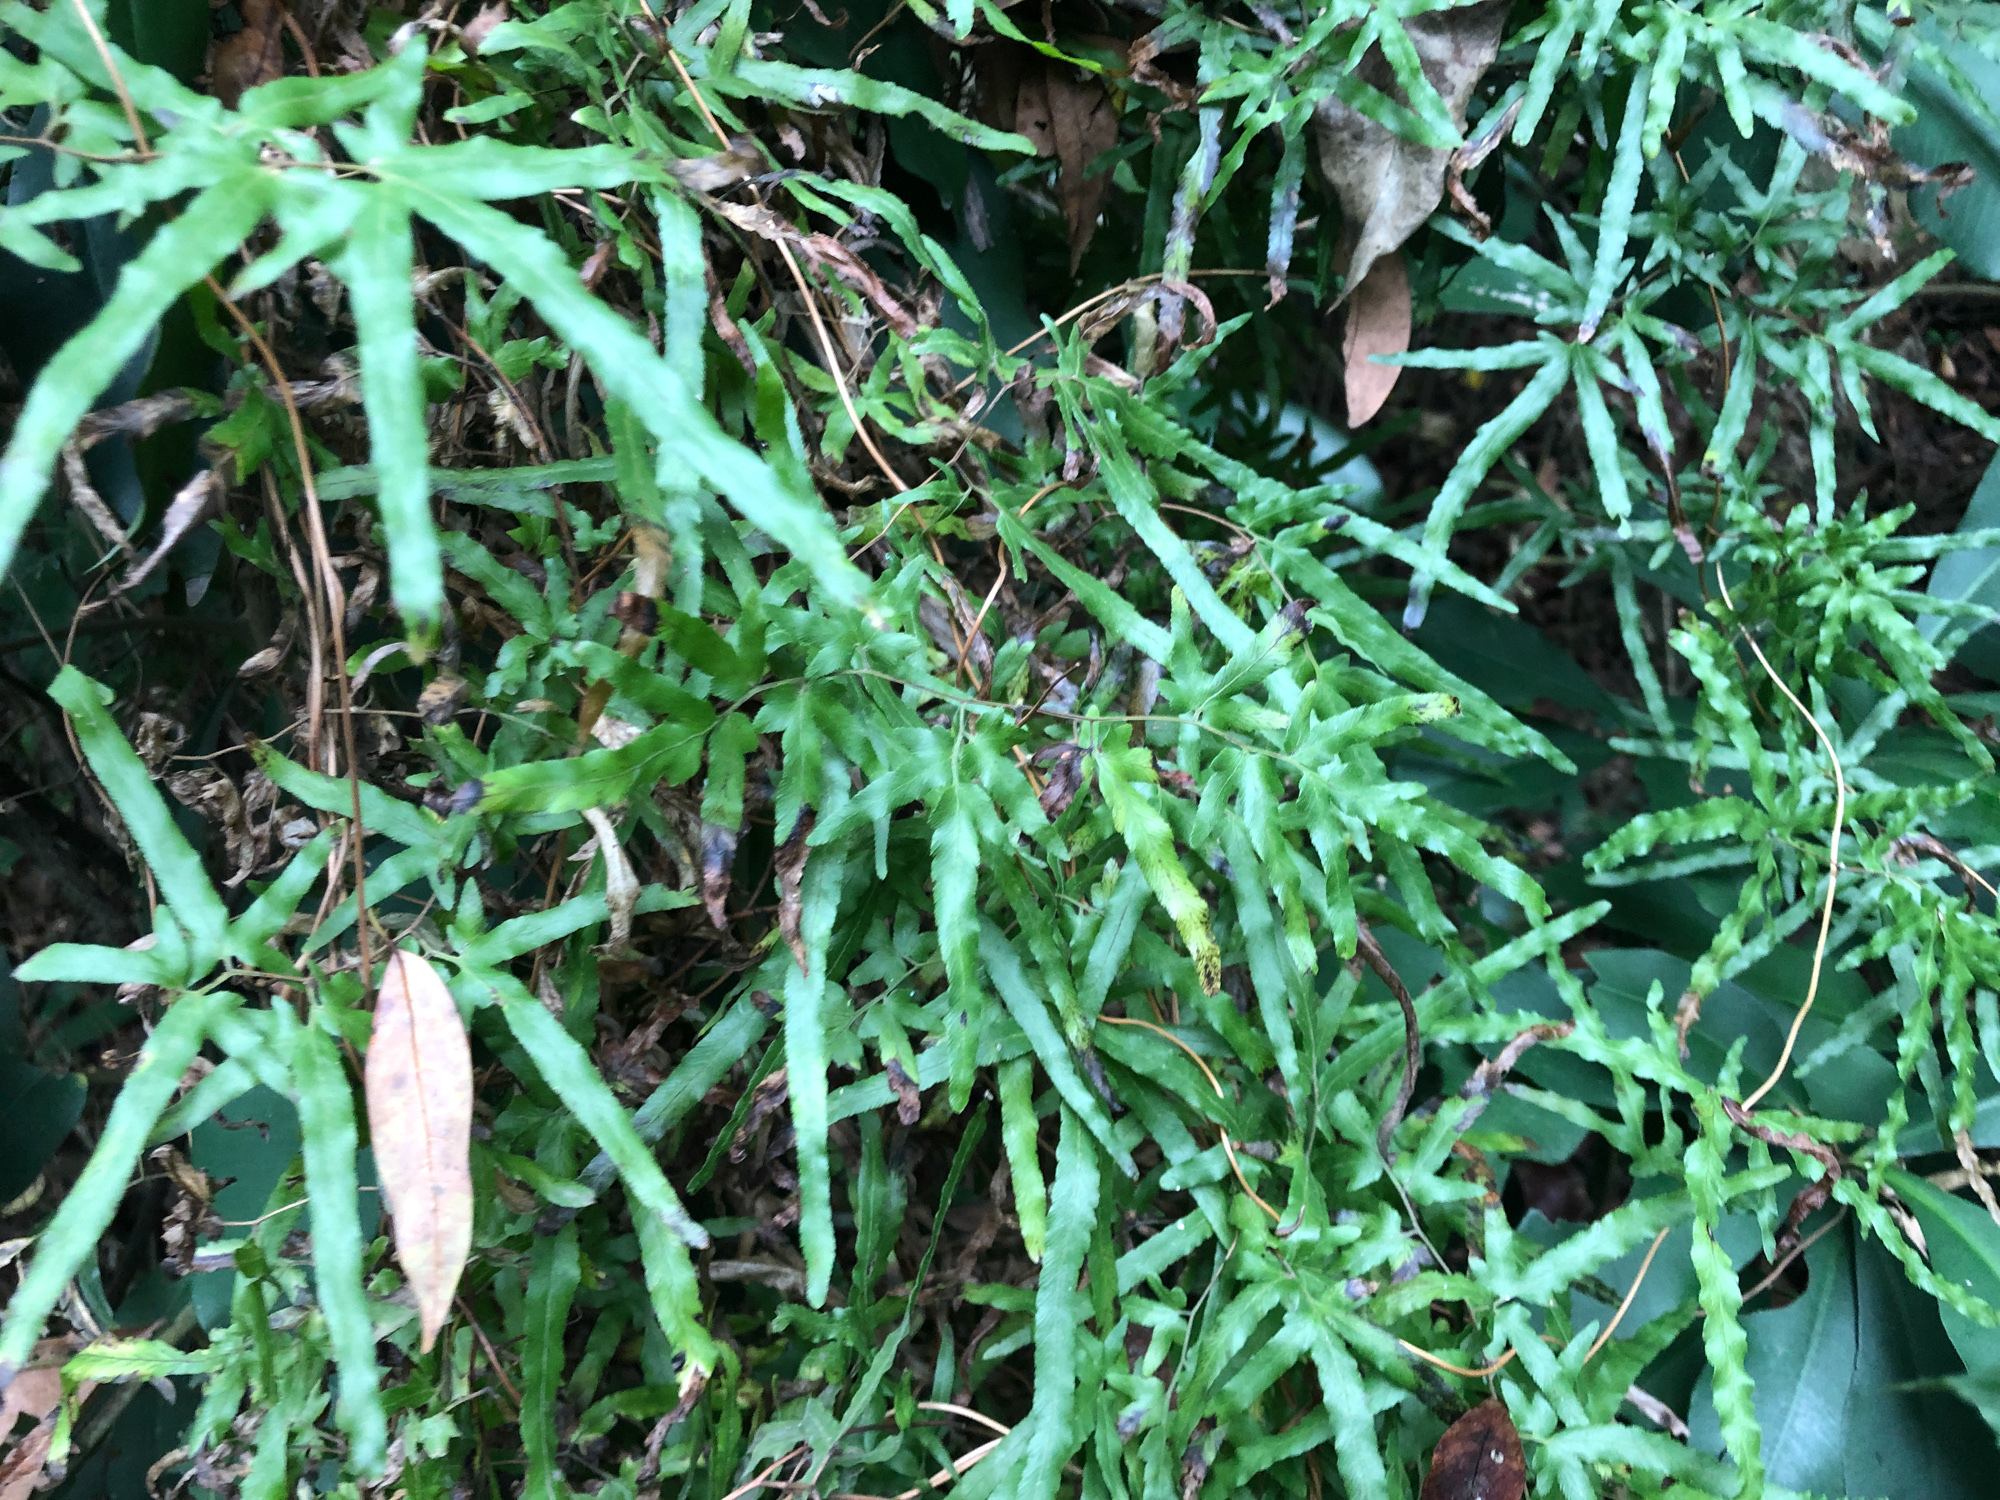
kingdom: Plantae
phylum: Tracheophyta
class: Polypodiopsida
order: Schizaeales
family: Lygodiaceae
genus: Lygodium
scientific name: Lygodium japonicum
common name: Japanese climbing fern
